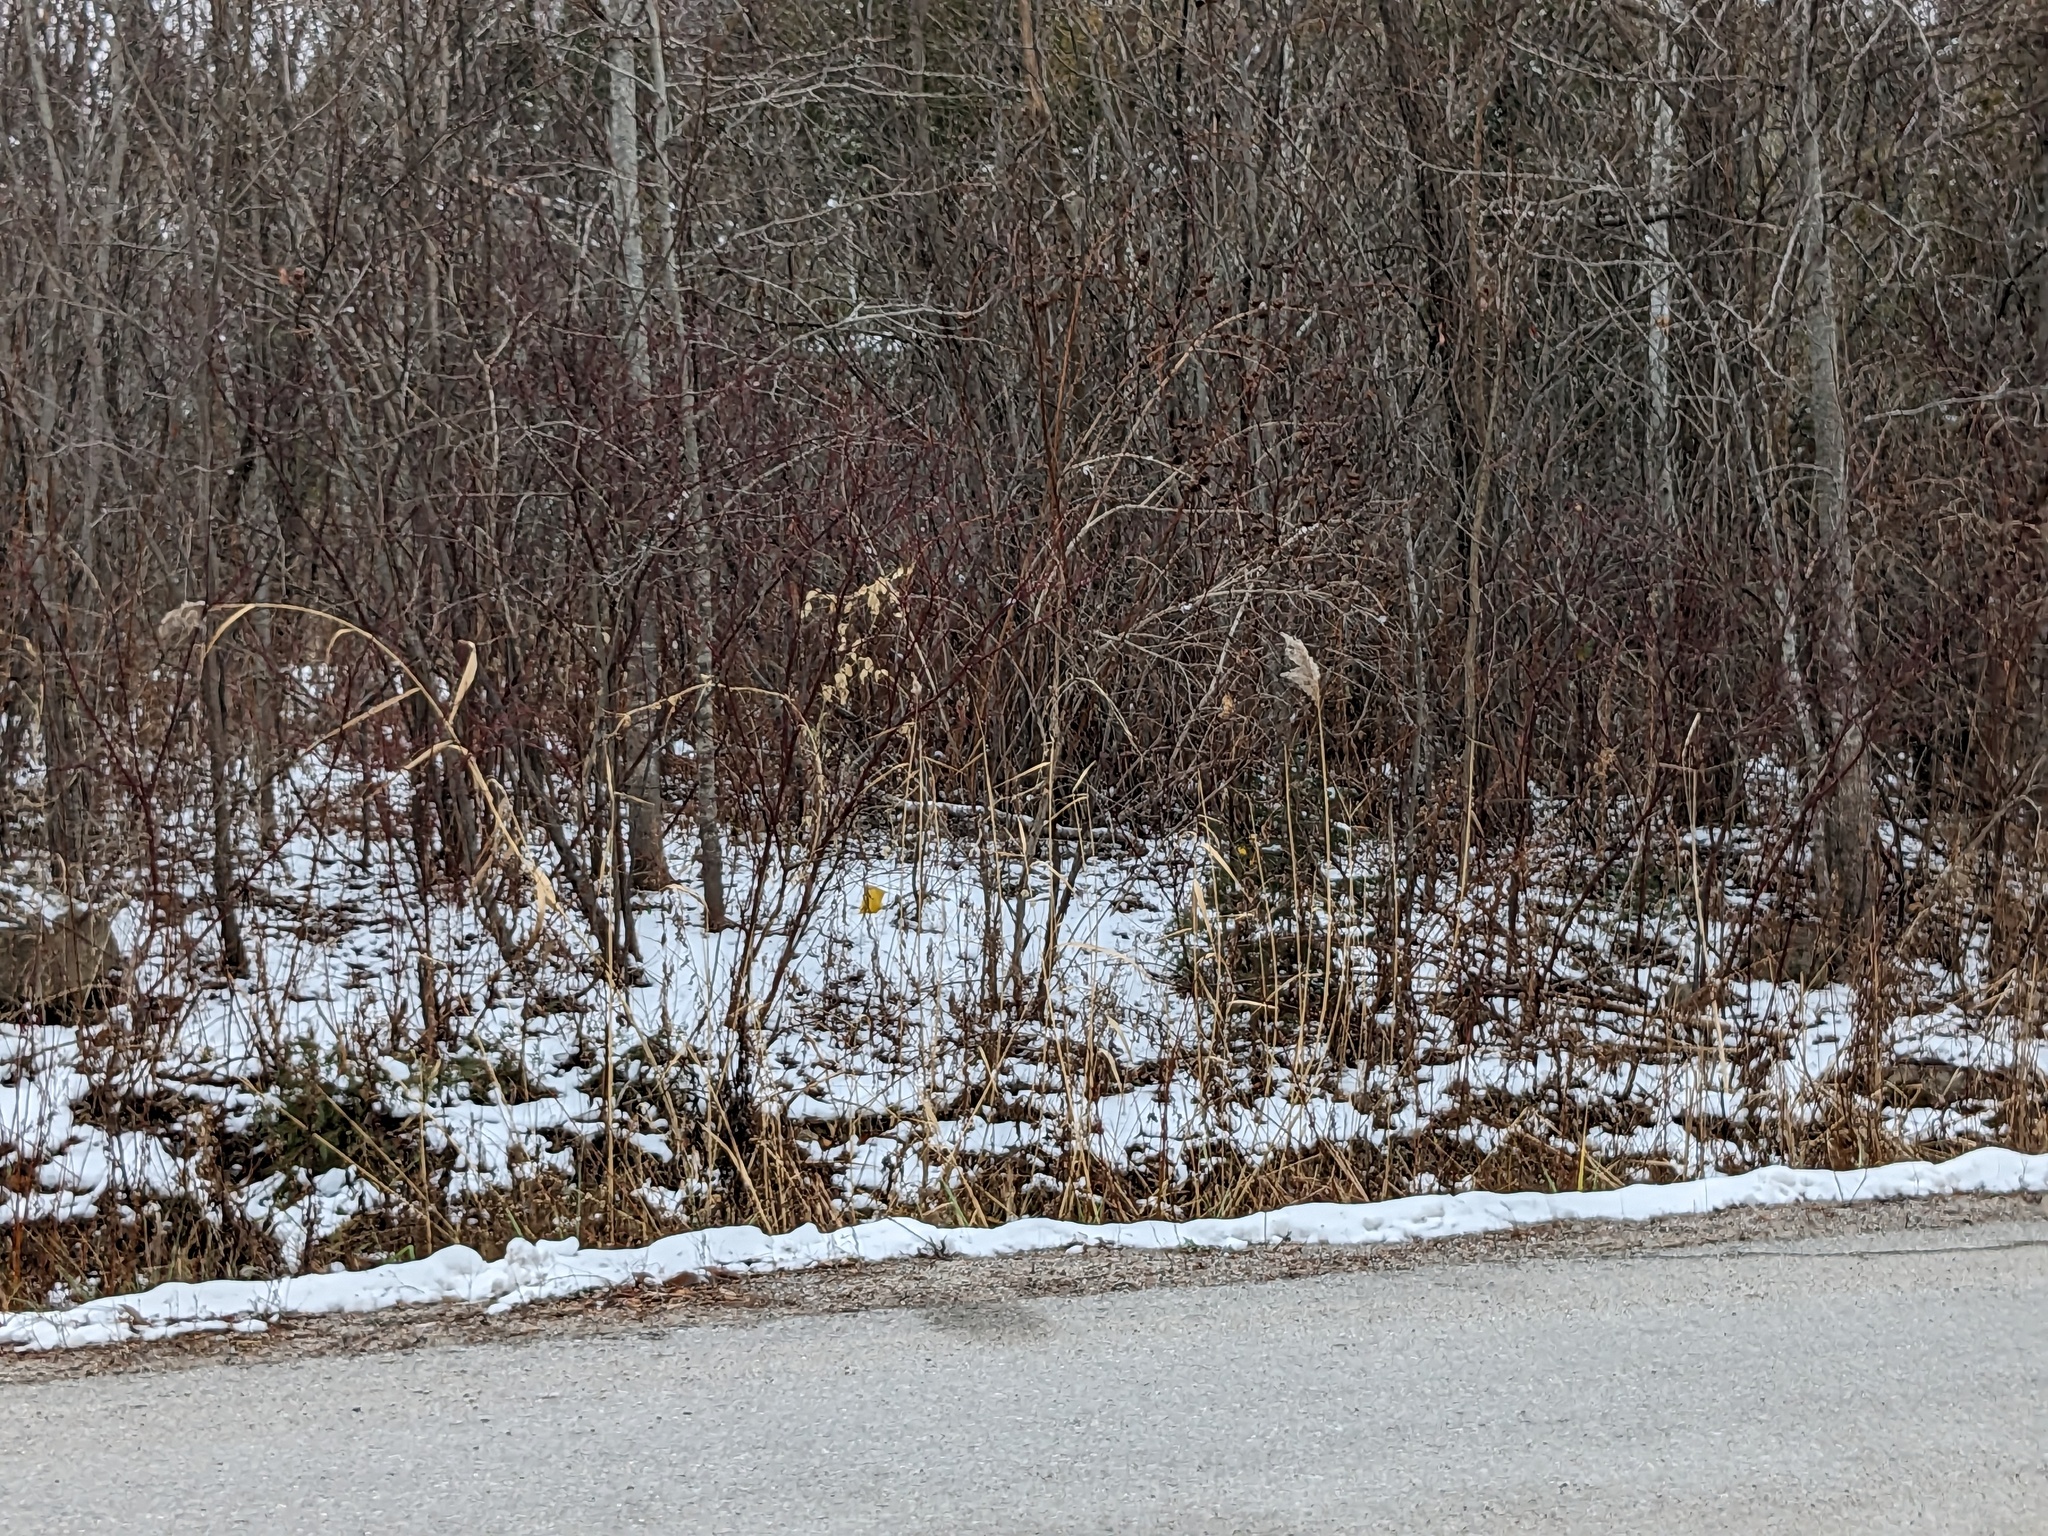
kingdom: Plantae
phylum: Tracheophyta
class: Liliopsida
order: Poales
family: Poaceae
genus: Phragmites
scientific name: Phragmites australis
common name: Common reed
